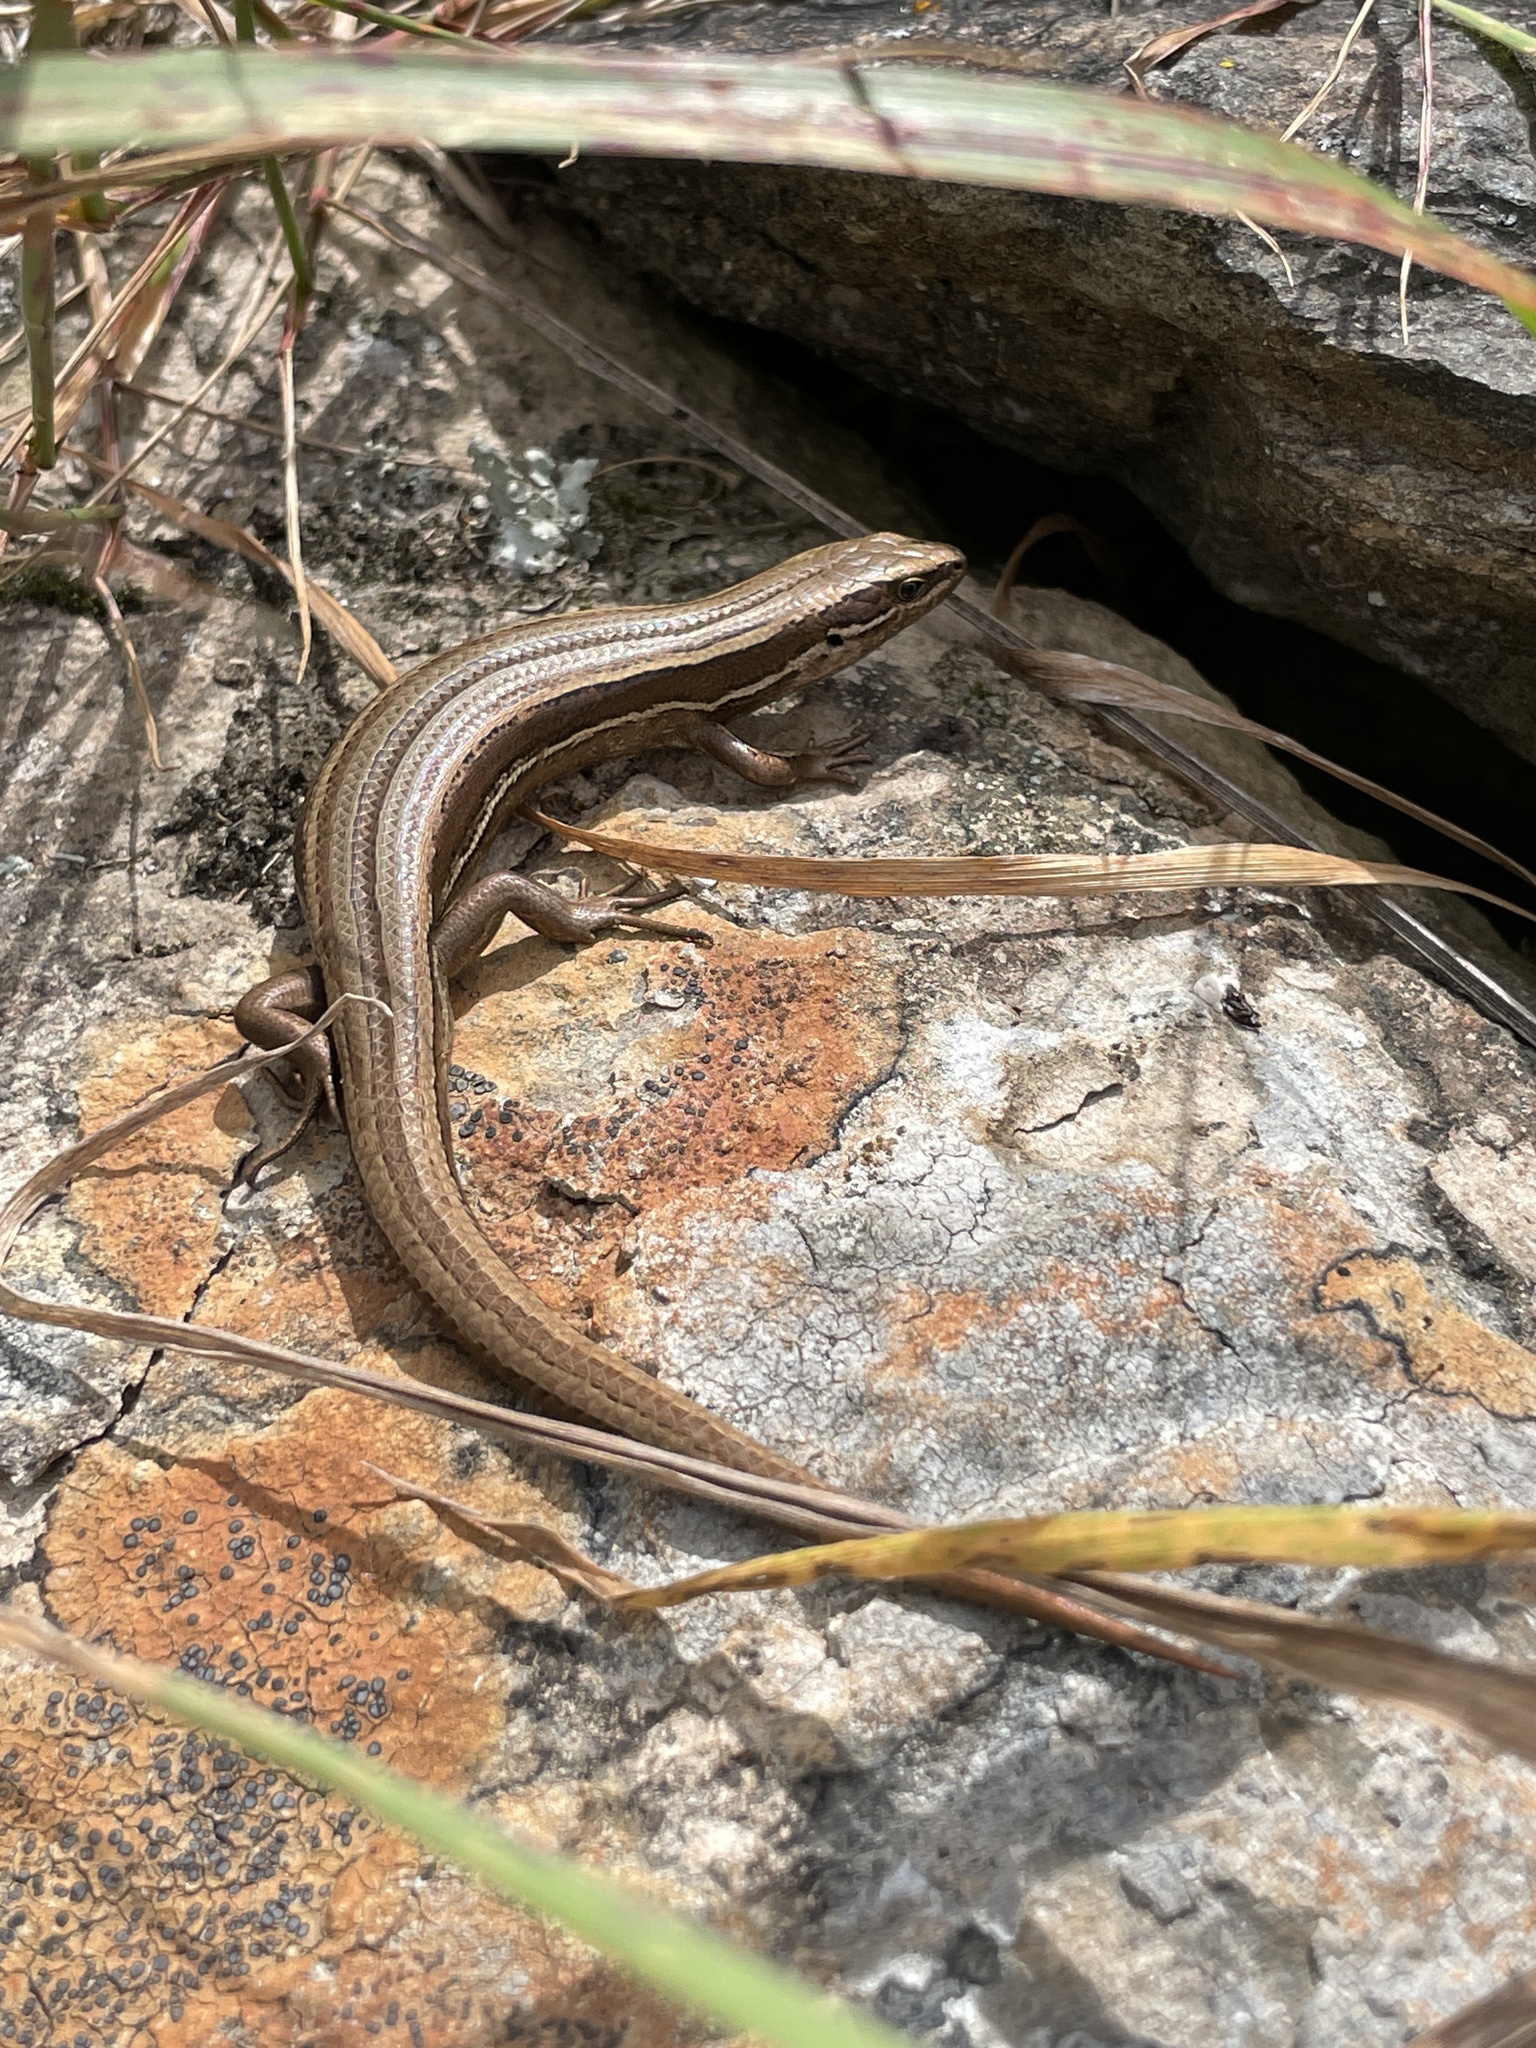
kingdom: Animalia
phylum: Chordata
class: Squamata
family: Scincidae
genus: Oligosoma
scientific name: Oligosoma polychroma
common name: Common new zealand skink
